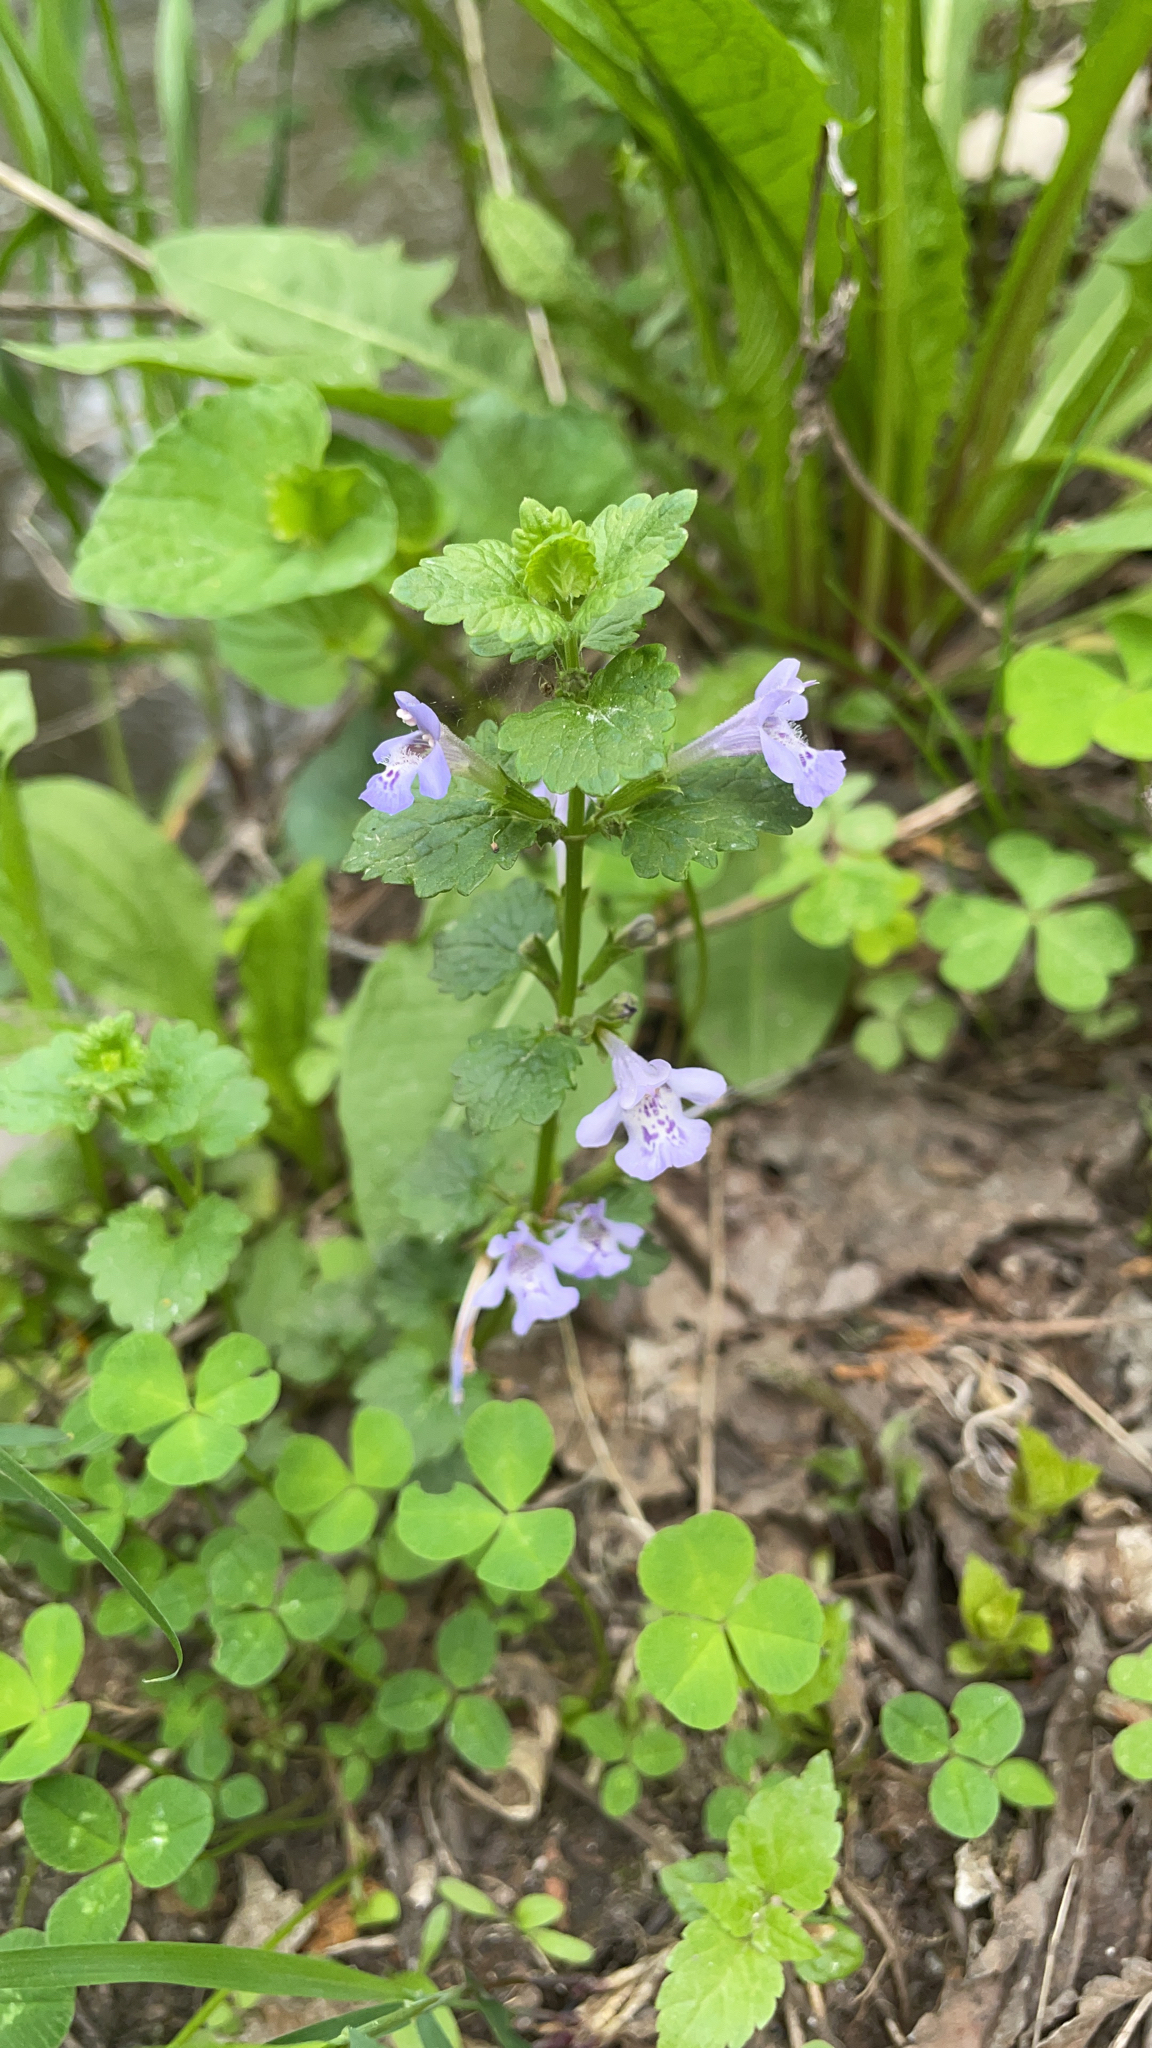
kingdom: Plantae
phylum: Tracheophyta
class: Magnoliopsida
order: Lamiales
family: Lamiaceae
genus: Glechoma
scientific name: Glechoma hederacea
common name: Ground ivy
